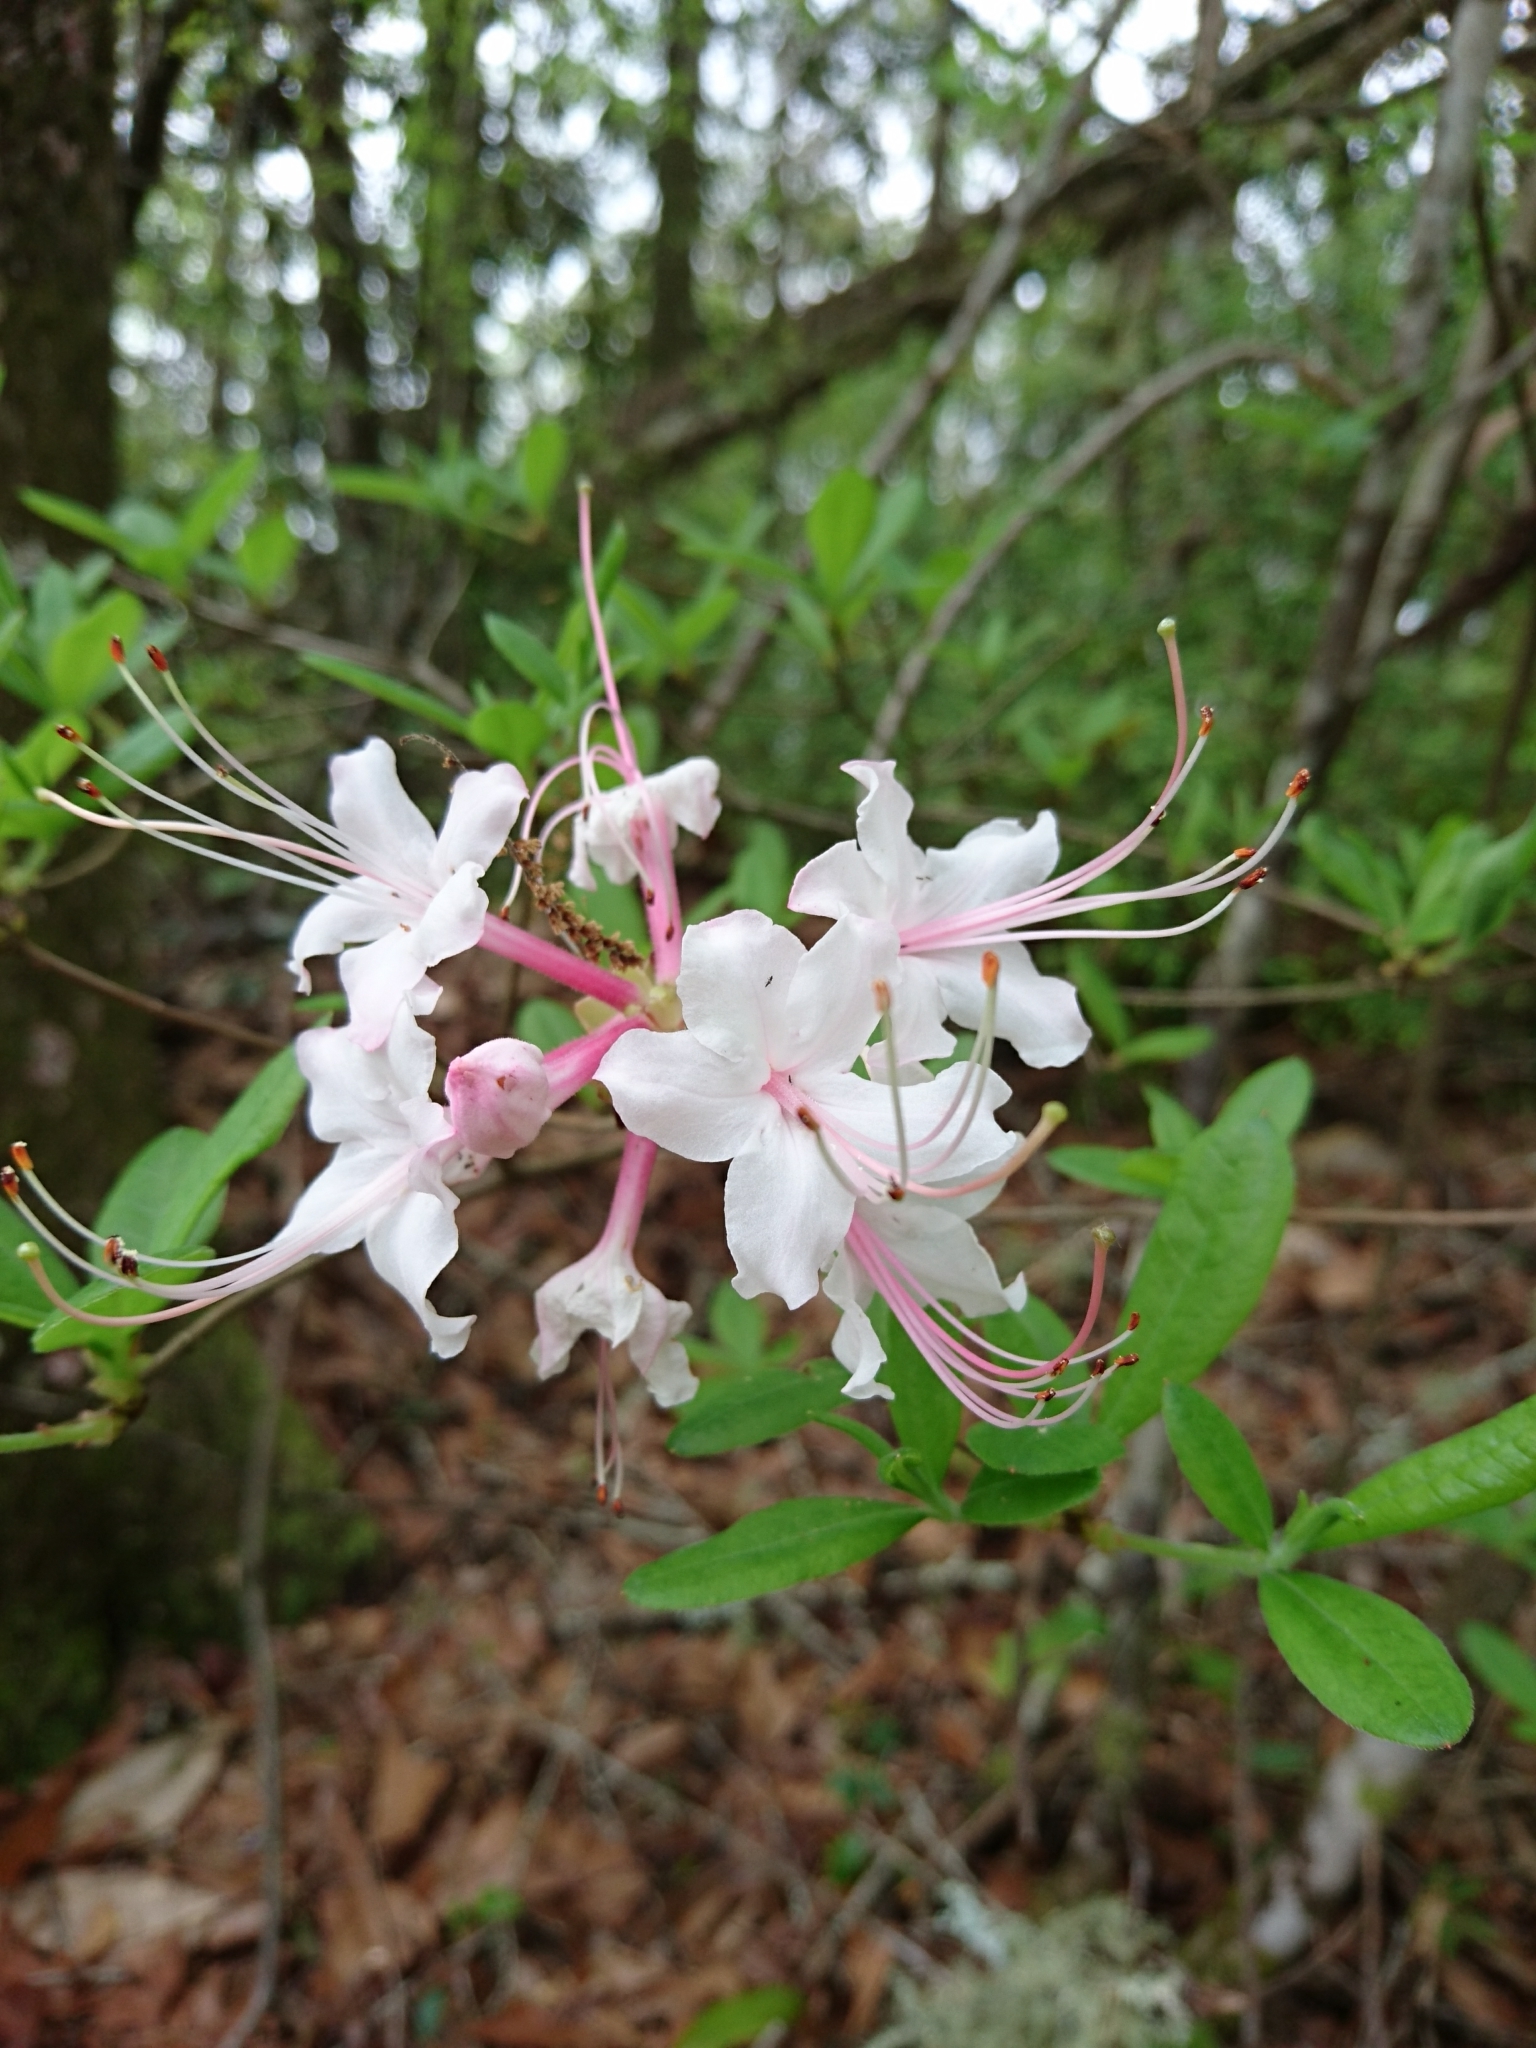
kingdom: Plantae
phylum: Tracheophyta
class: Magnoliopsida
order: Ericales
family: Ericaceae
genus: Rhododendron
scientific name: Rhododendron canescens
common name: Mountain azalea
